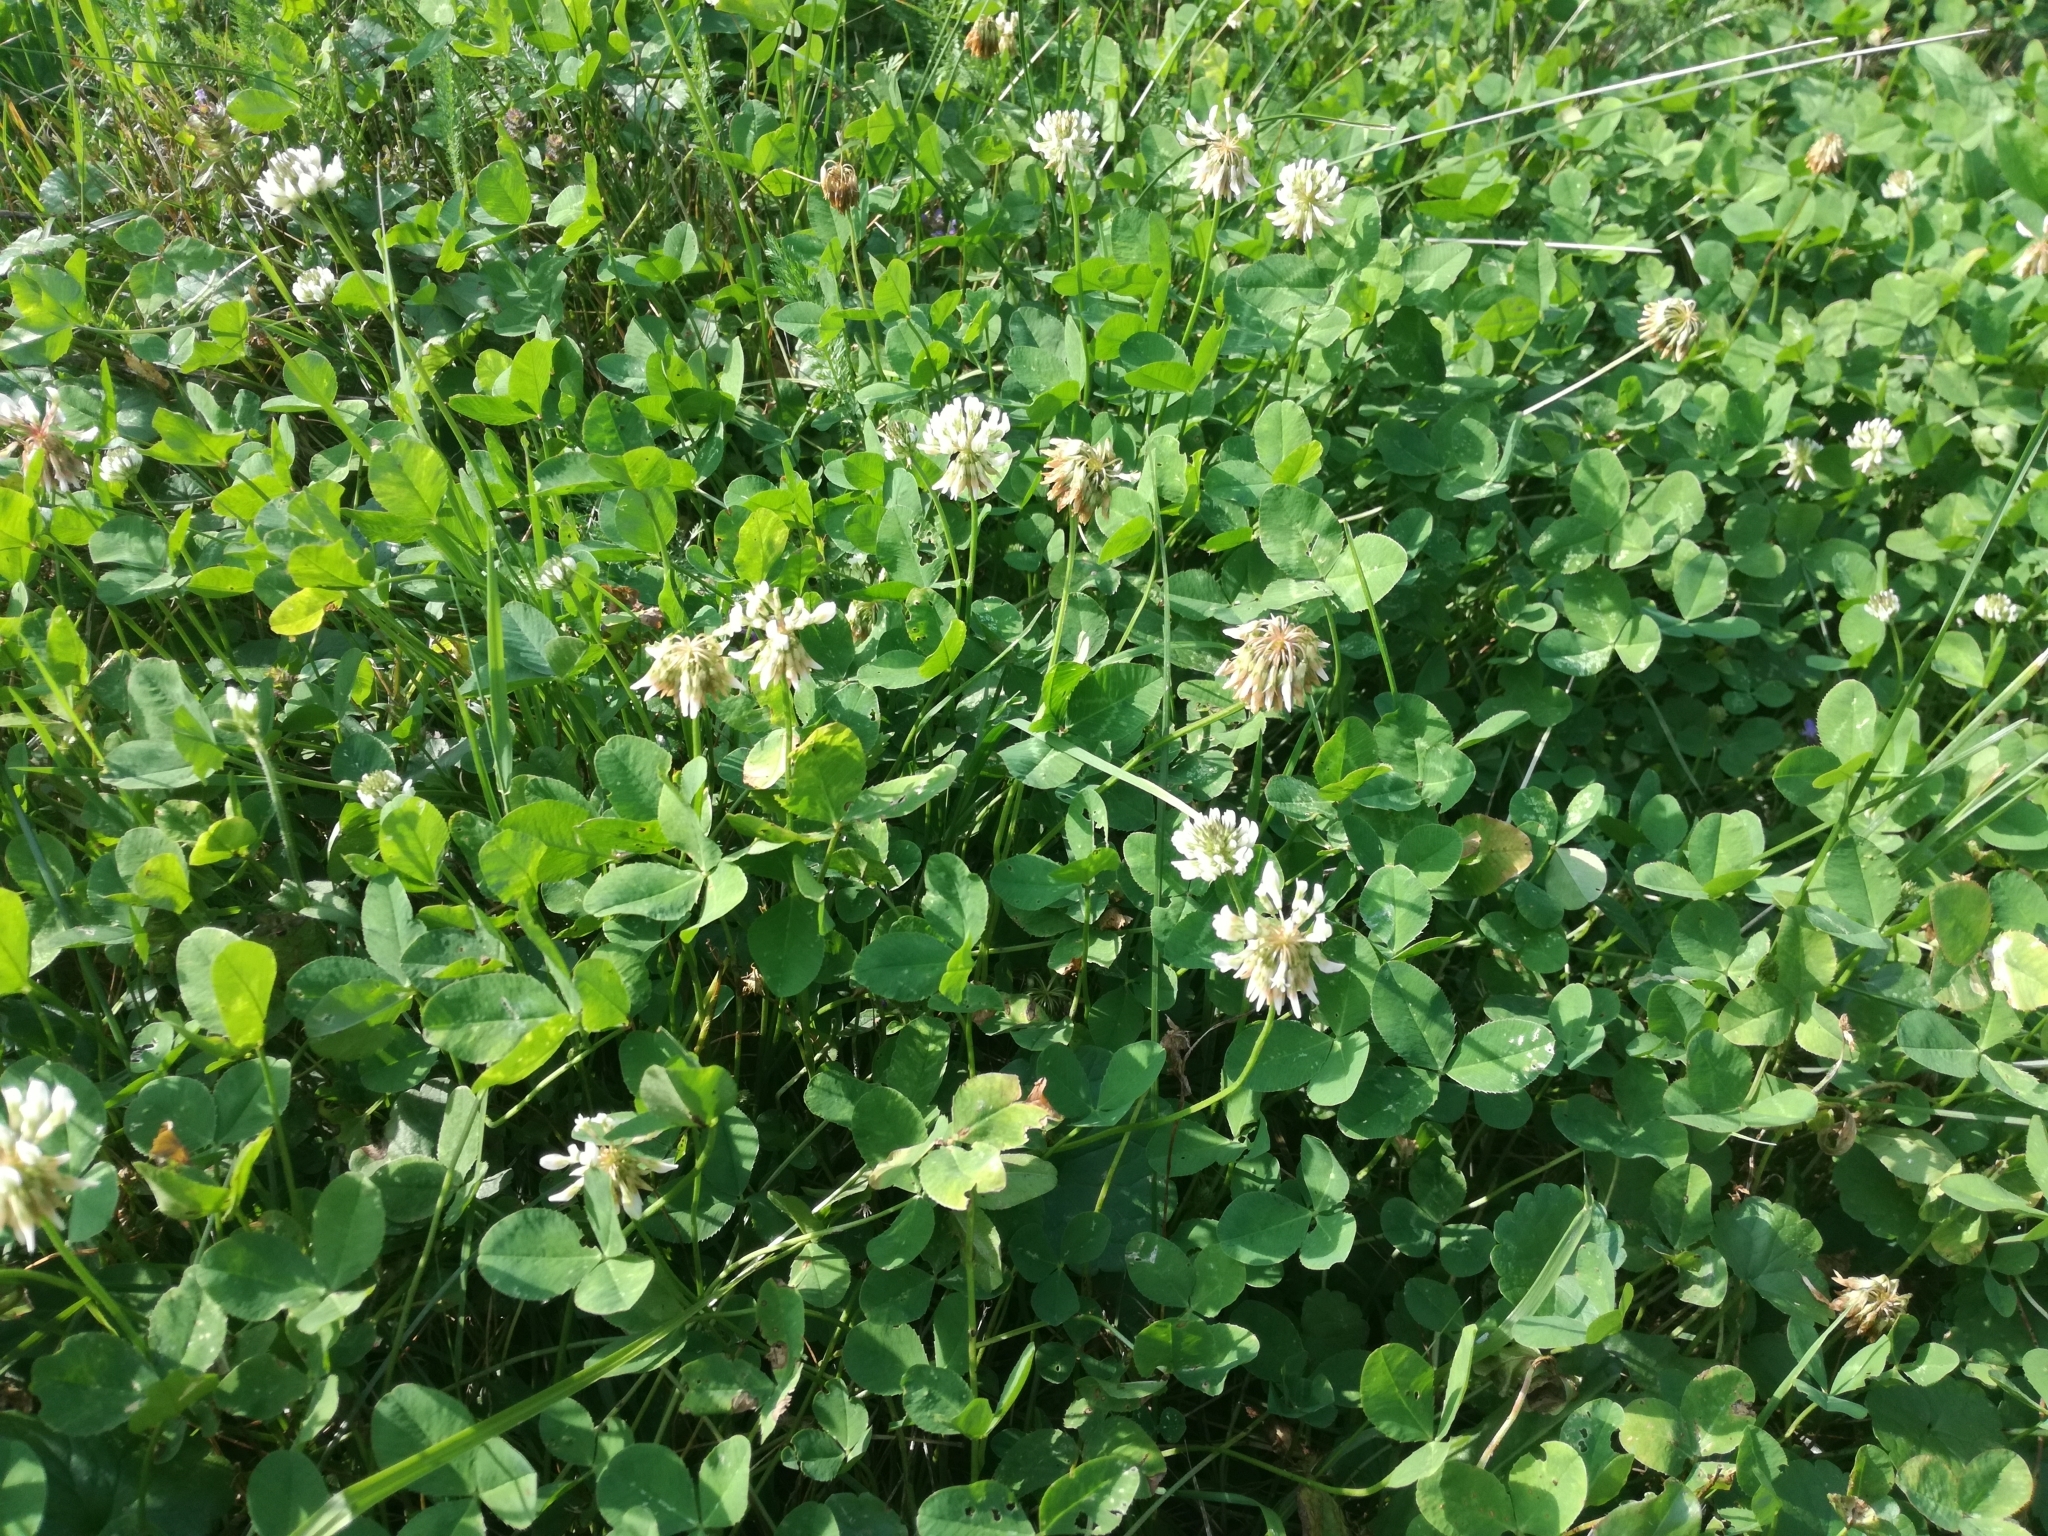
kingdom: Plantae
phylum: Tracheophyta
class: Magnoliopsida
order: Fabales
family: Fabaceae
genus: Trifolium
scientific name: Trifolium repens
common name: White clover
